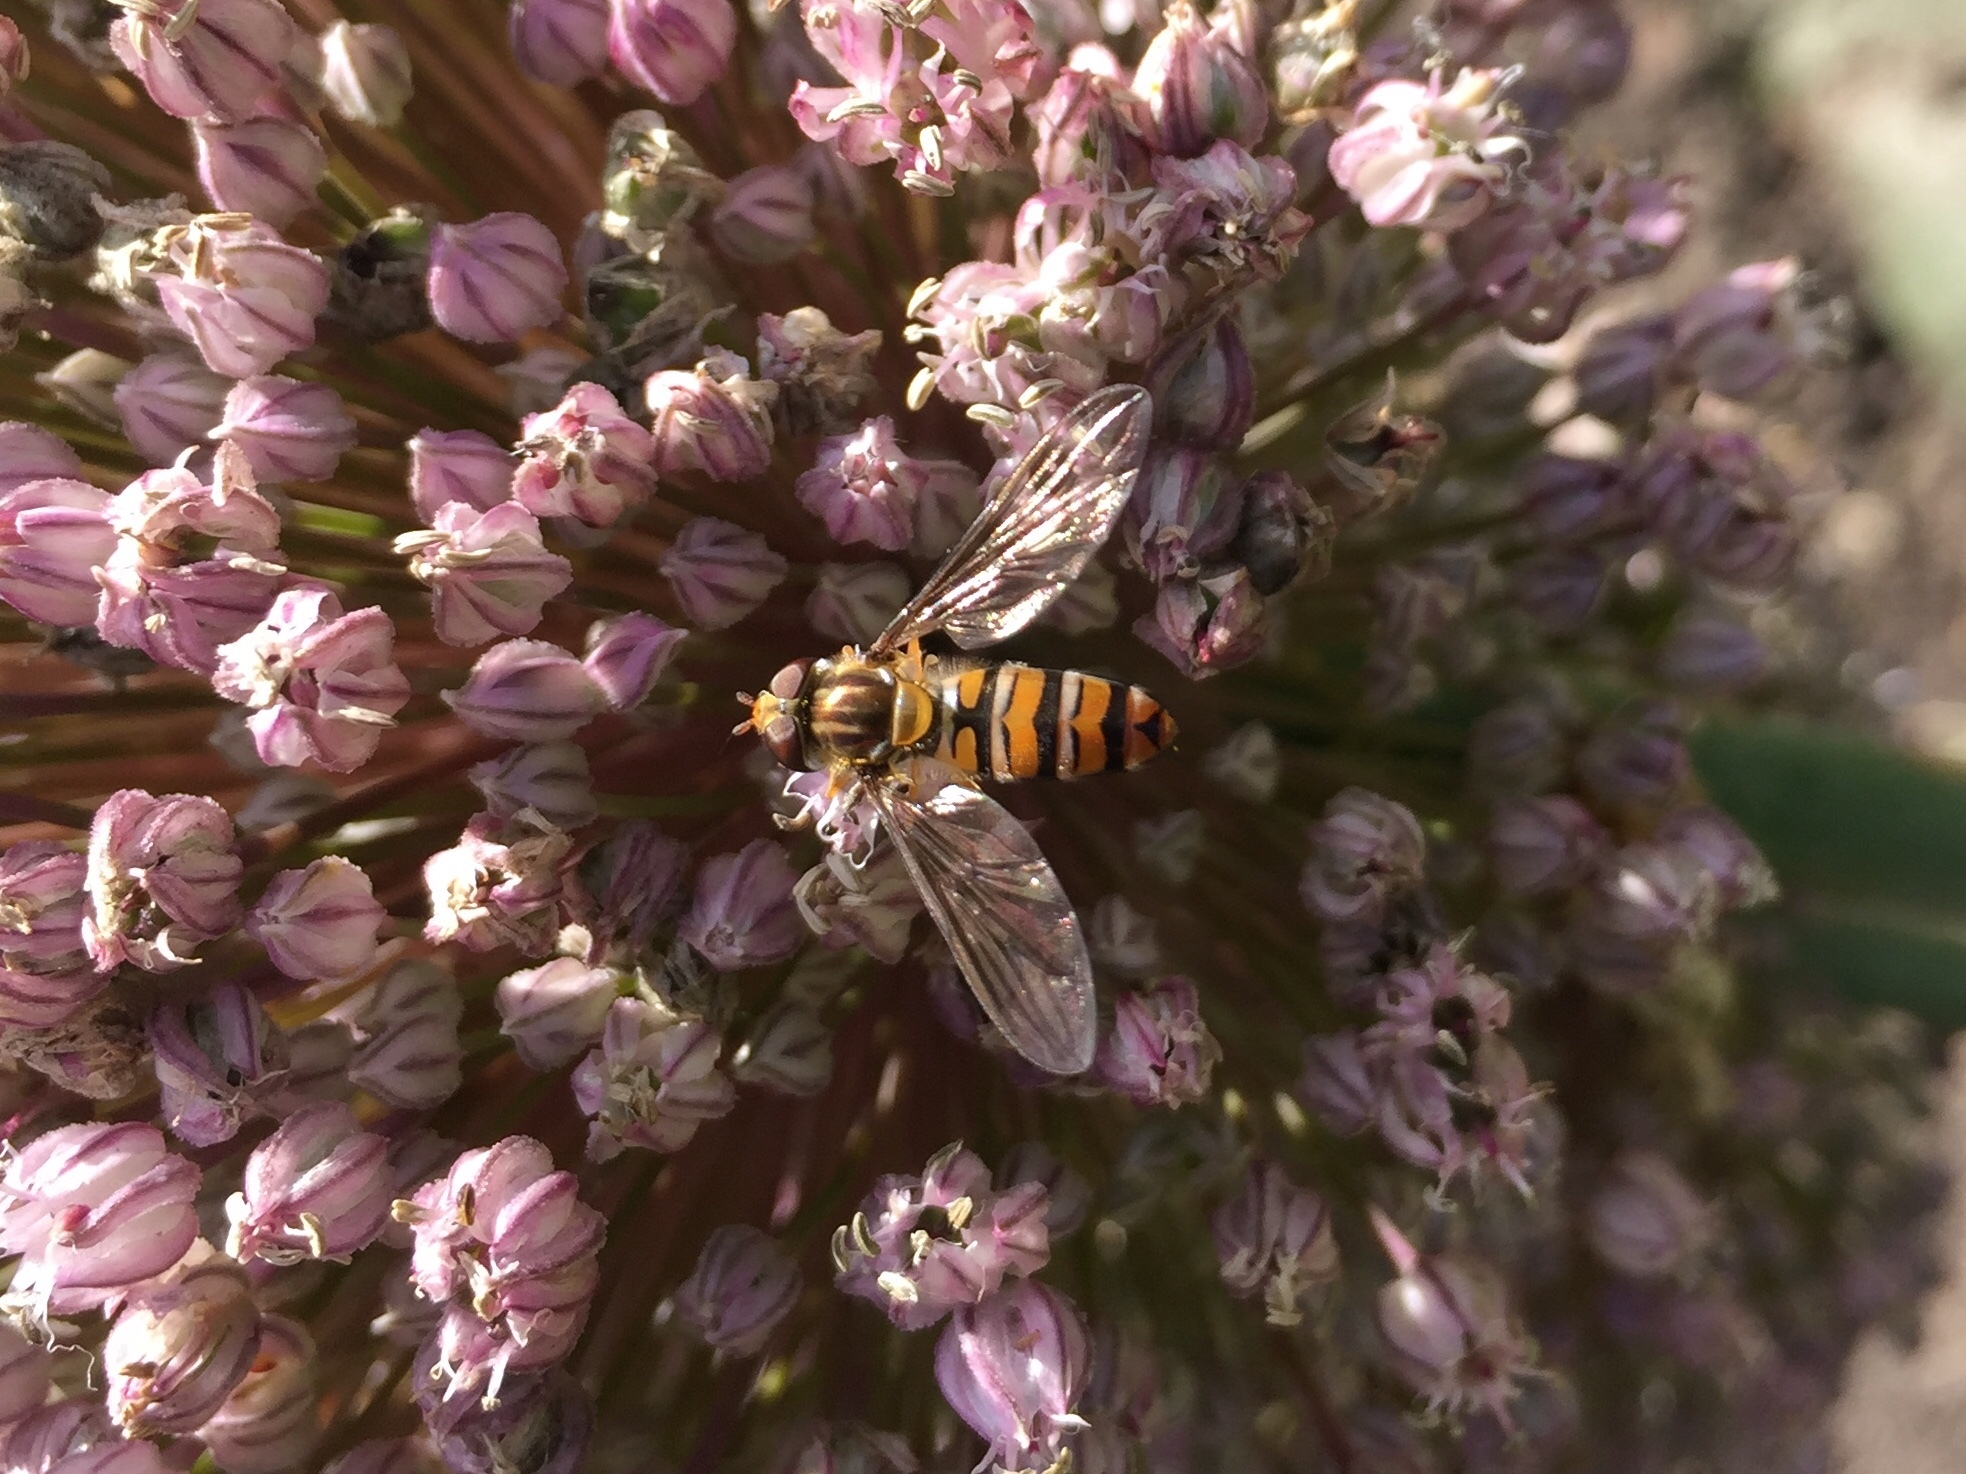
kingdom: Animalia
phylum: Arthropoda
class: Insecta
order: Diptera
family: Syrphidae
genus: Episyrphus
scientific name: Episyrphus balteatus
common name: Marmalade hoverfly
